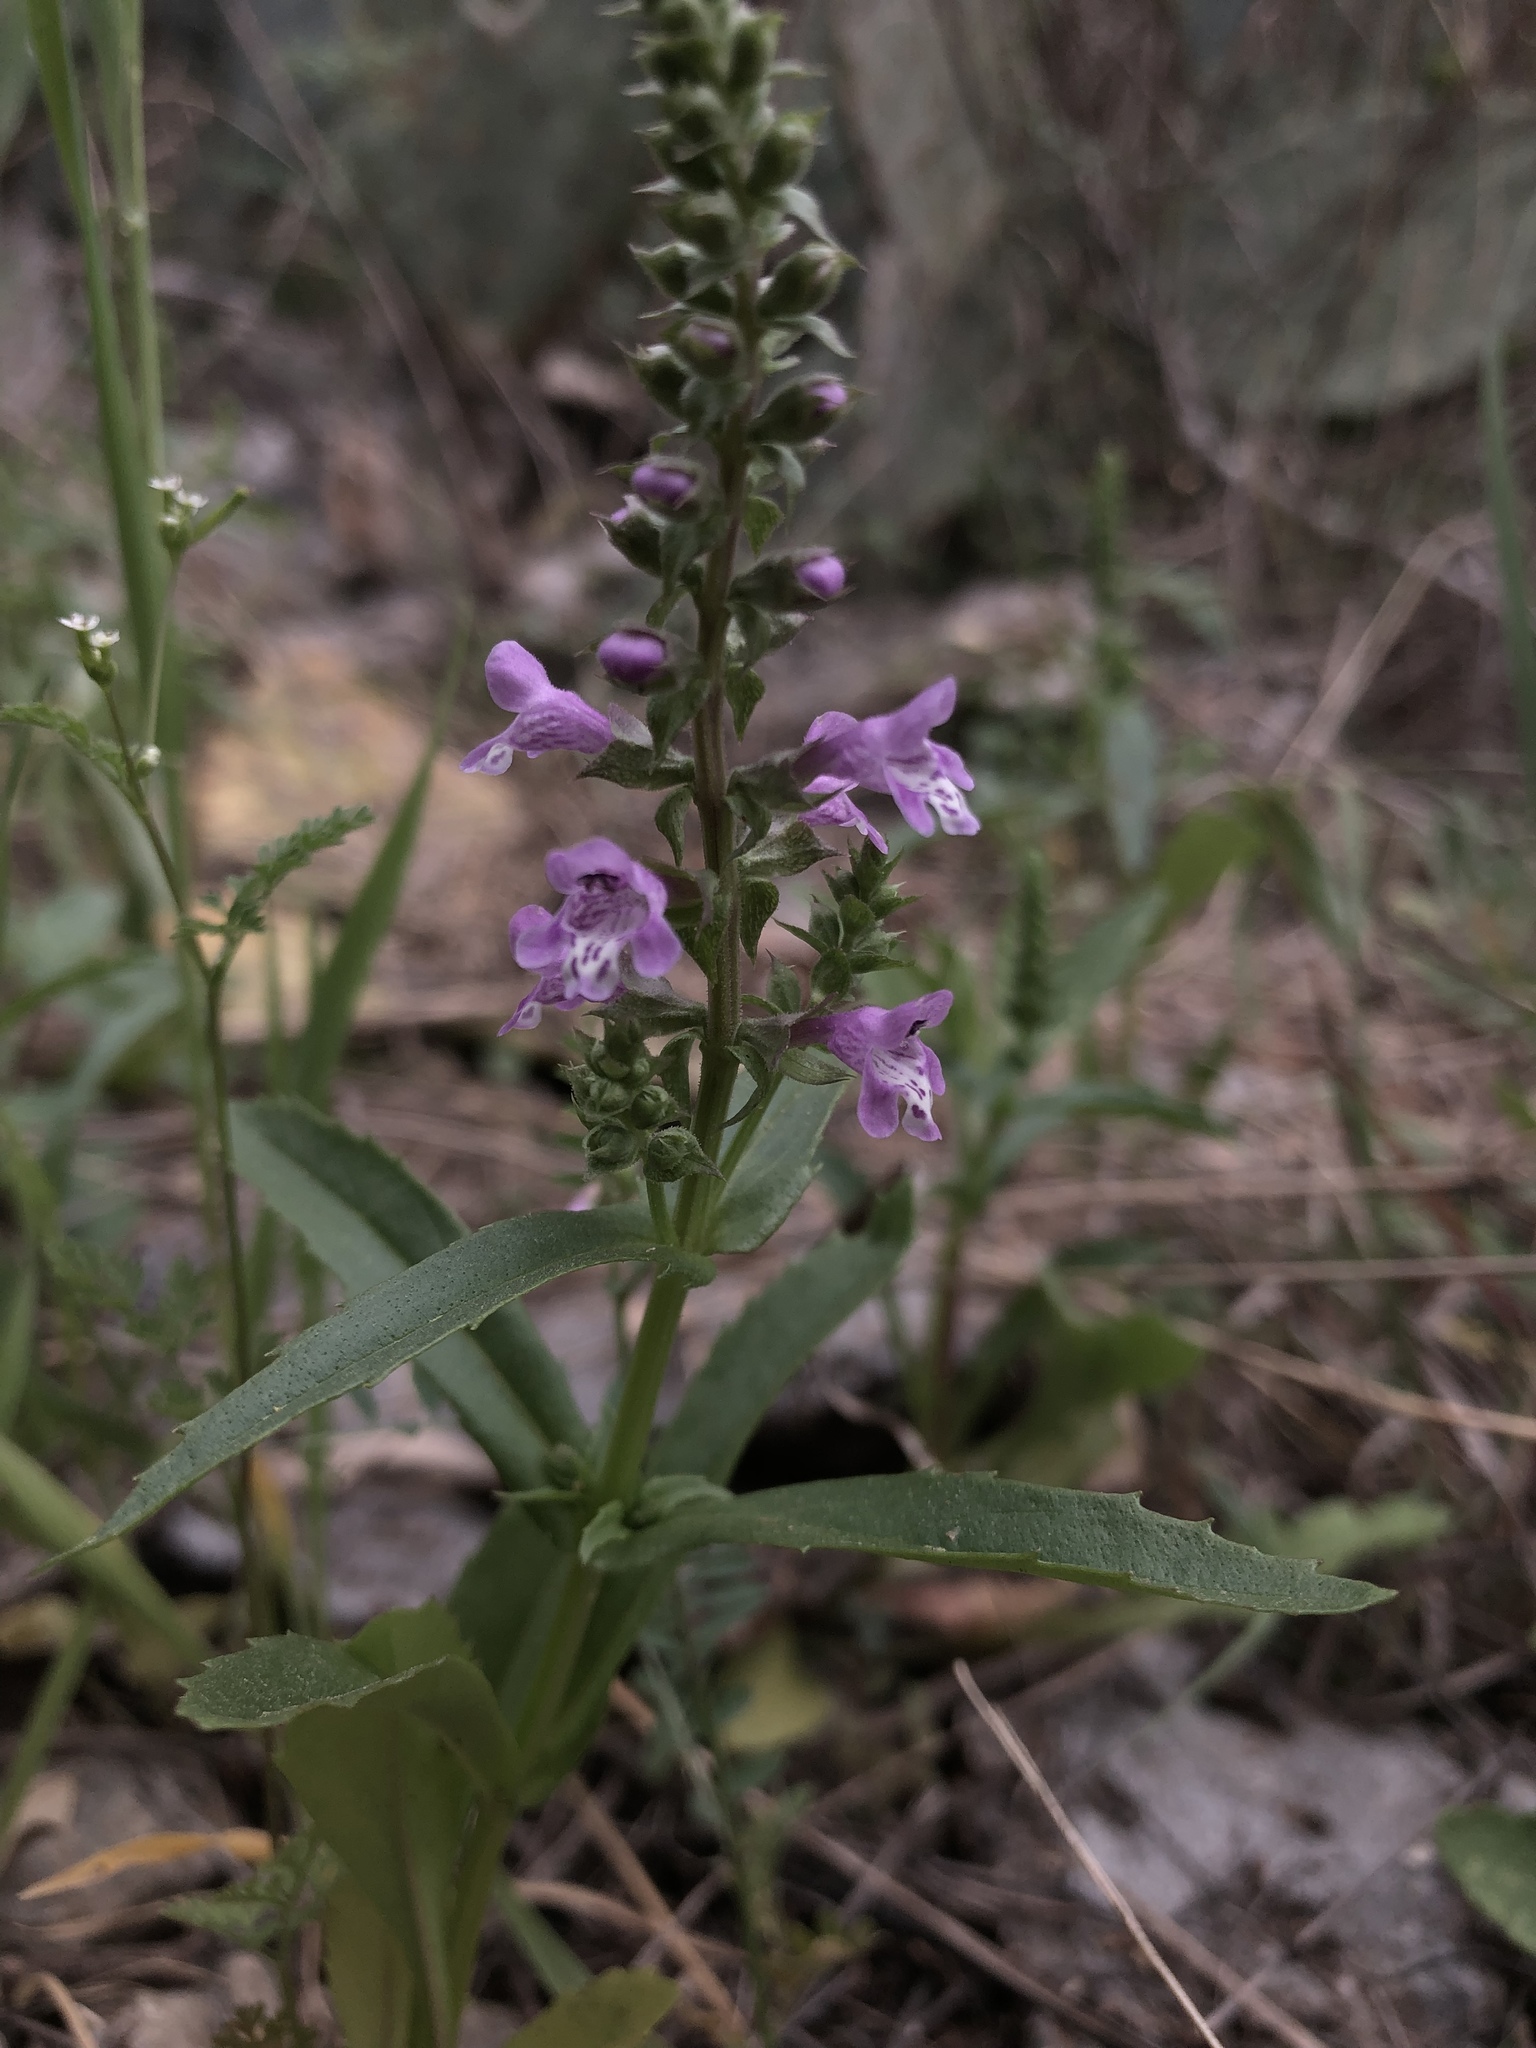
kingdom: Plantae
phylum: Tracheophyta
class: Magnoliopsida
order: Lamiales
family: Lamiaceae
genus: Warnockia
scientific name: Warnockia scutellarioides
